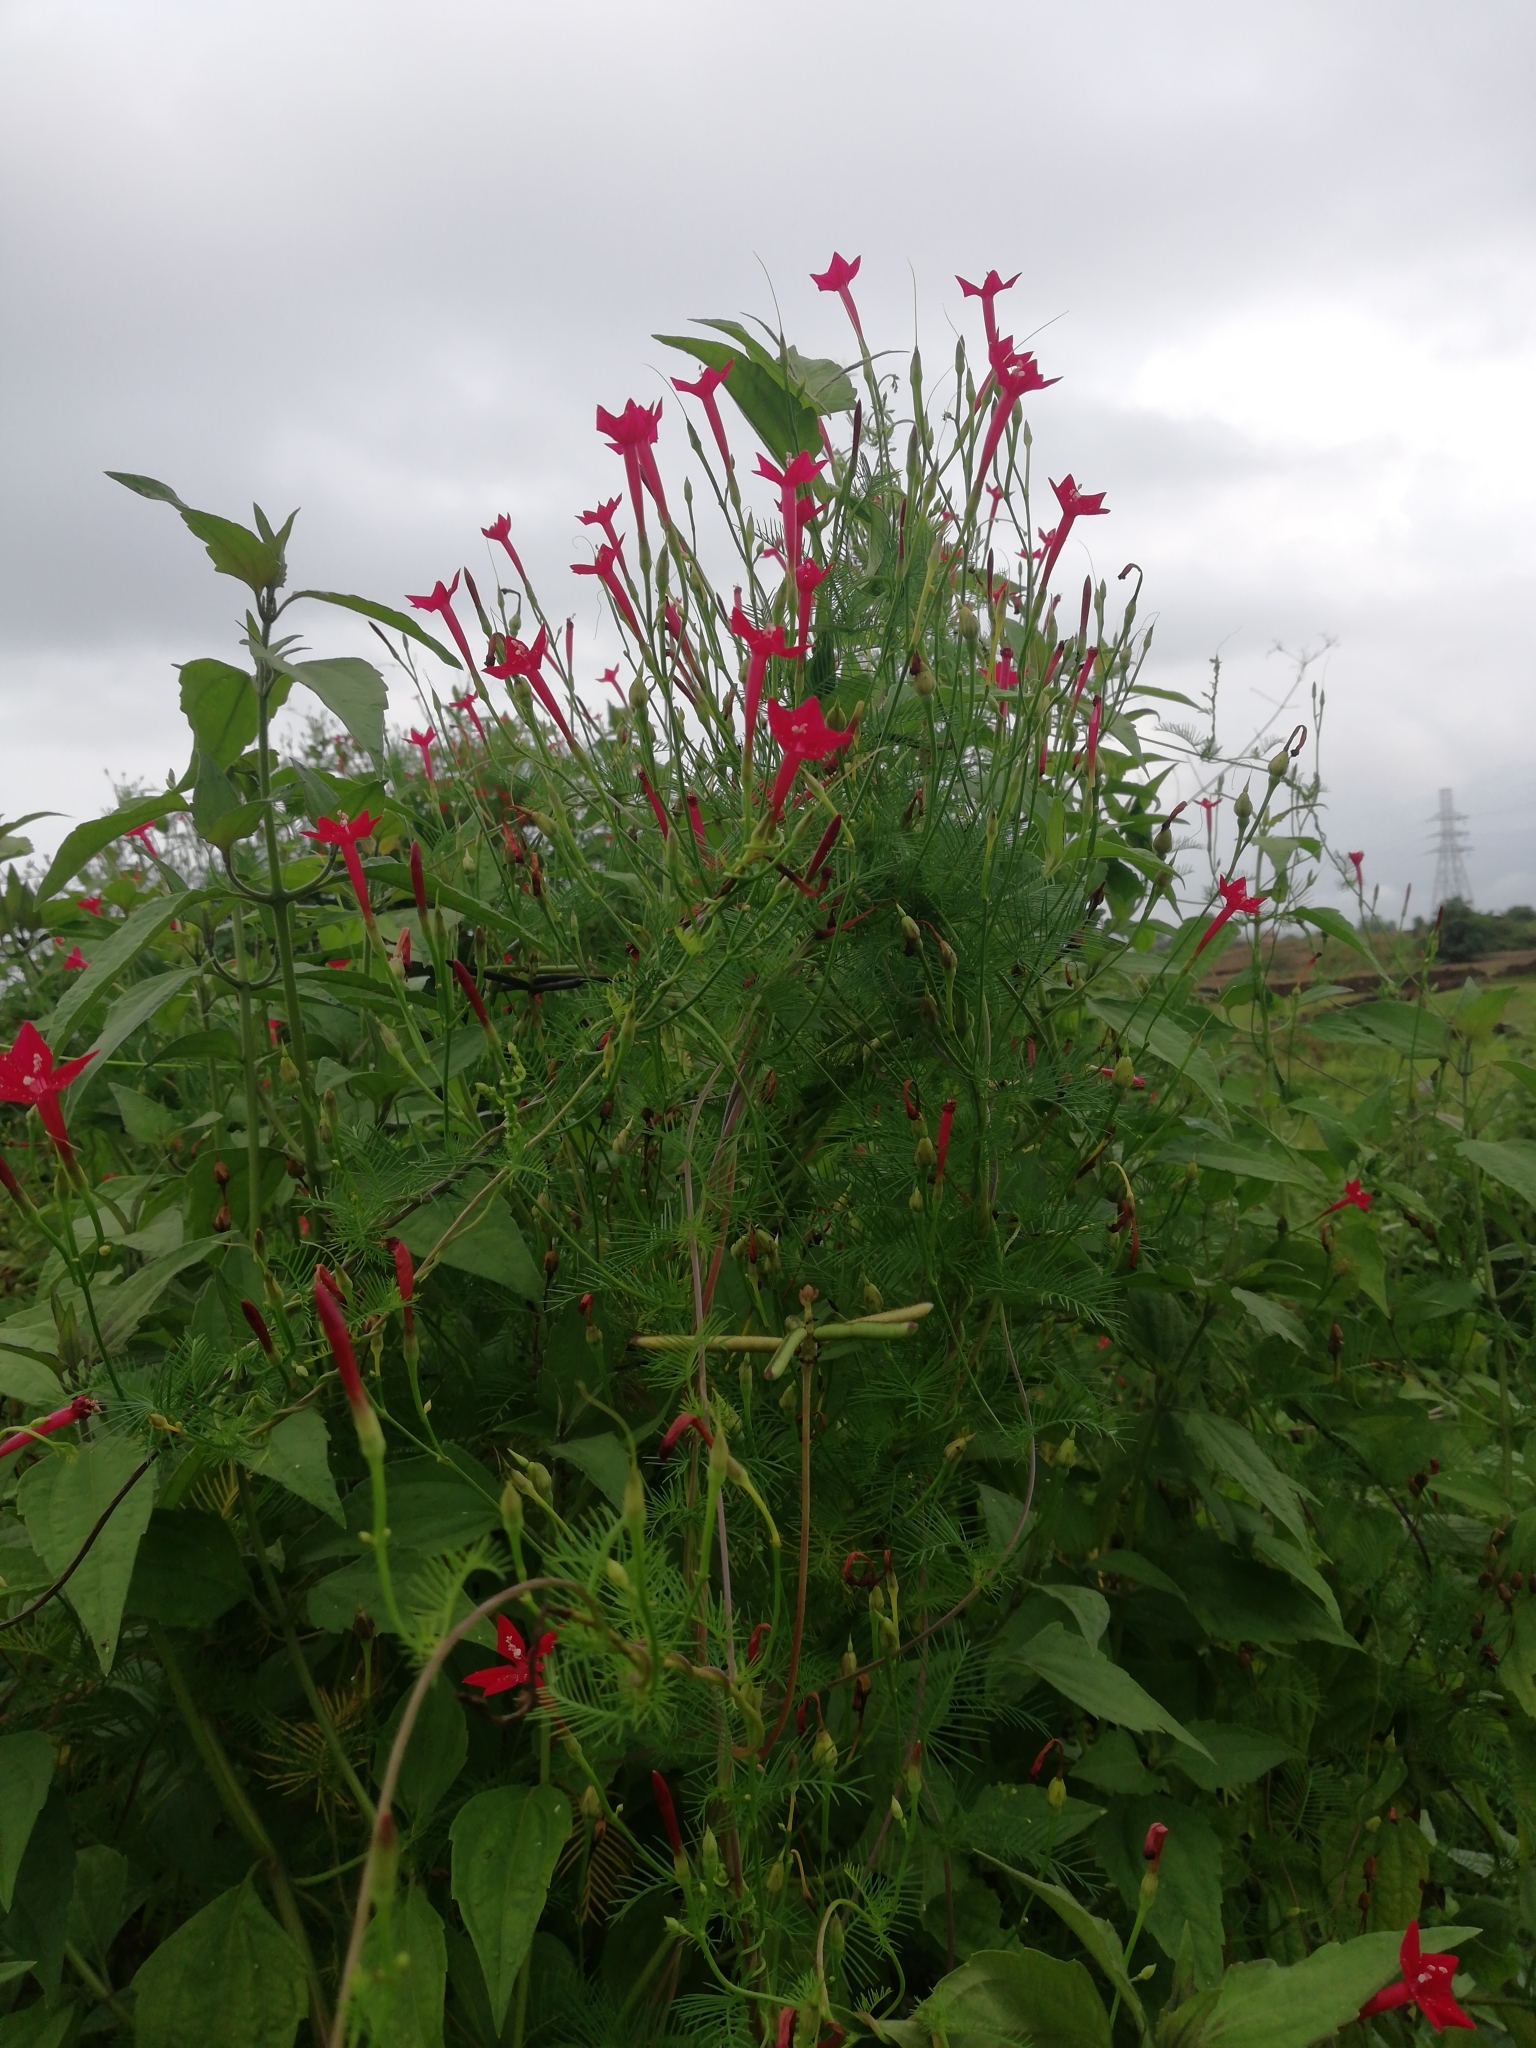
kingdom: Plantae
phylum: Tracheophyta
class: Magnoliopsida
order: Solanales
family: Convolvulaceae
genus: Ipomoea
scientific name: Ipomoea quamoclit
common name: Cypress vine
